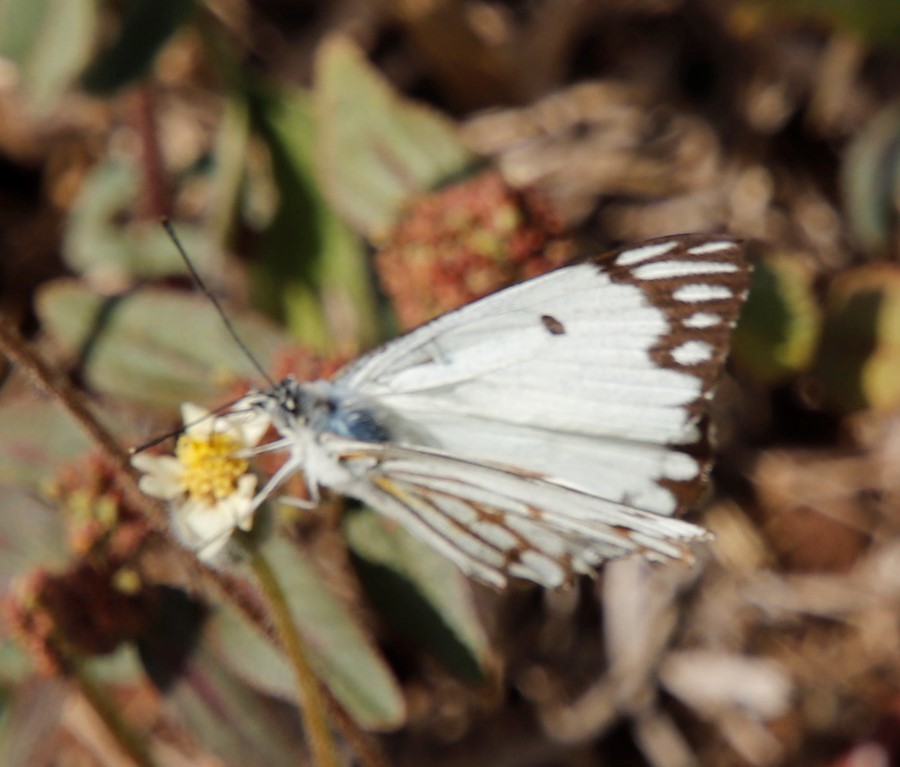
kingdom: Animalia
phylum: Arthropoda
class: Insecta
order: Lepidoptera
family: Pieridae
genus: Belenois
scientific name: Belenois aurota
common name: Brown-veined white
